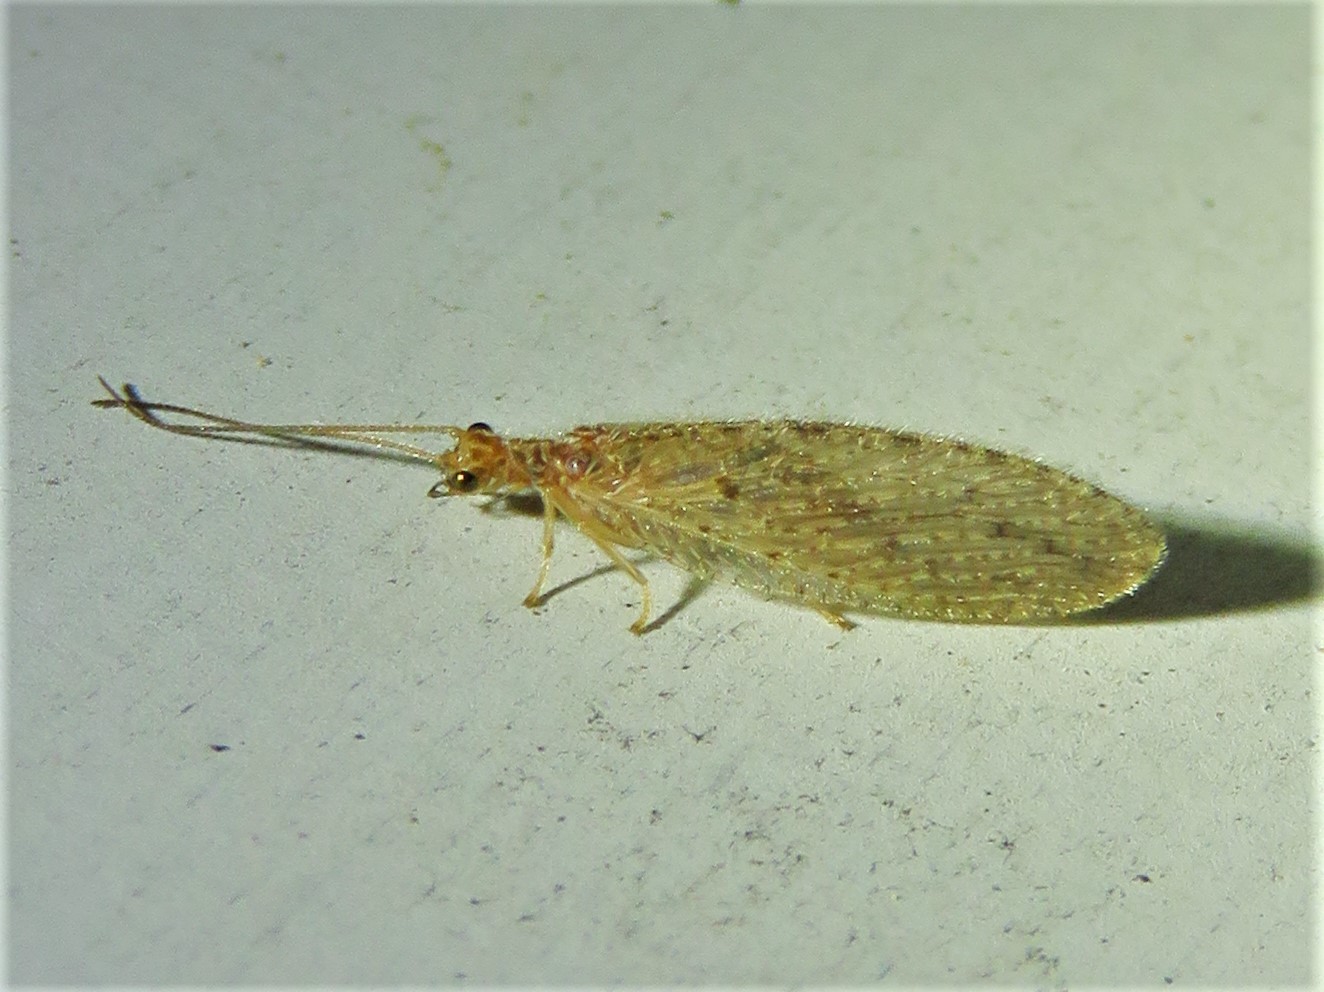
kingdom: Animalia
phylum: Arthropoda
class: Insecta
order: Neuroptera
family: Hemerobiidae
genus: Micromus
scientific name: Micromus subanticus
